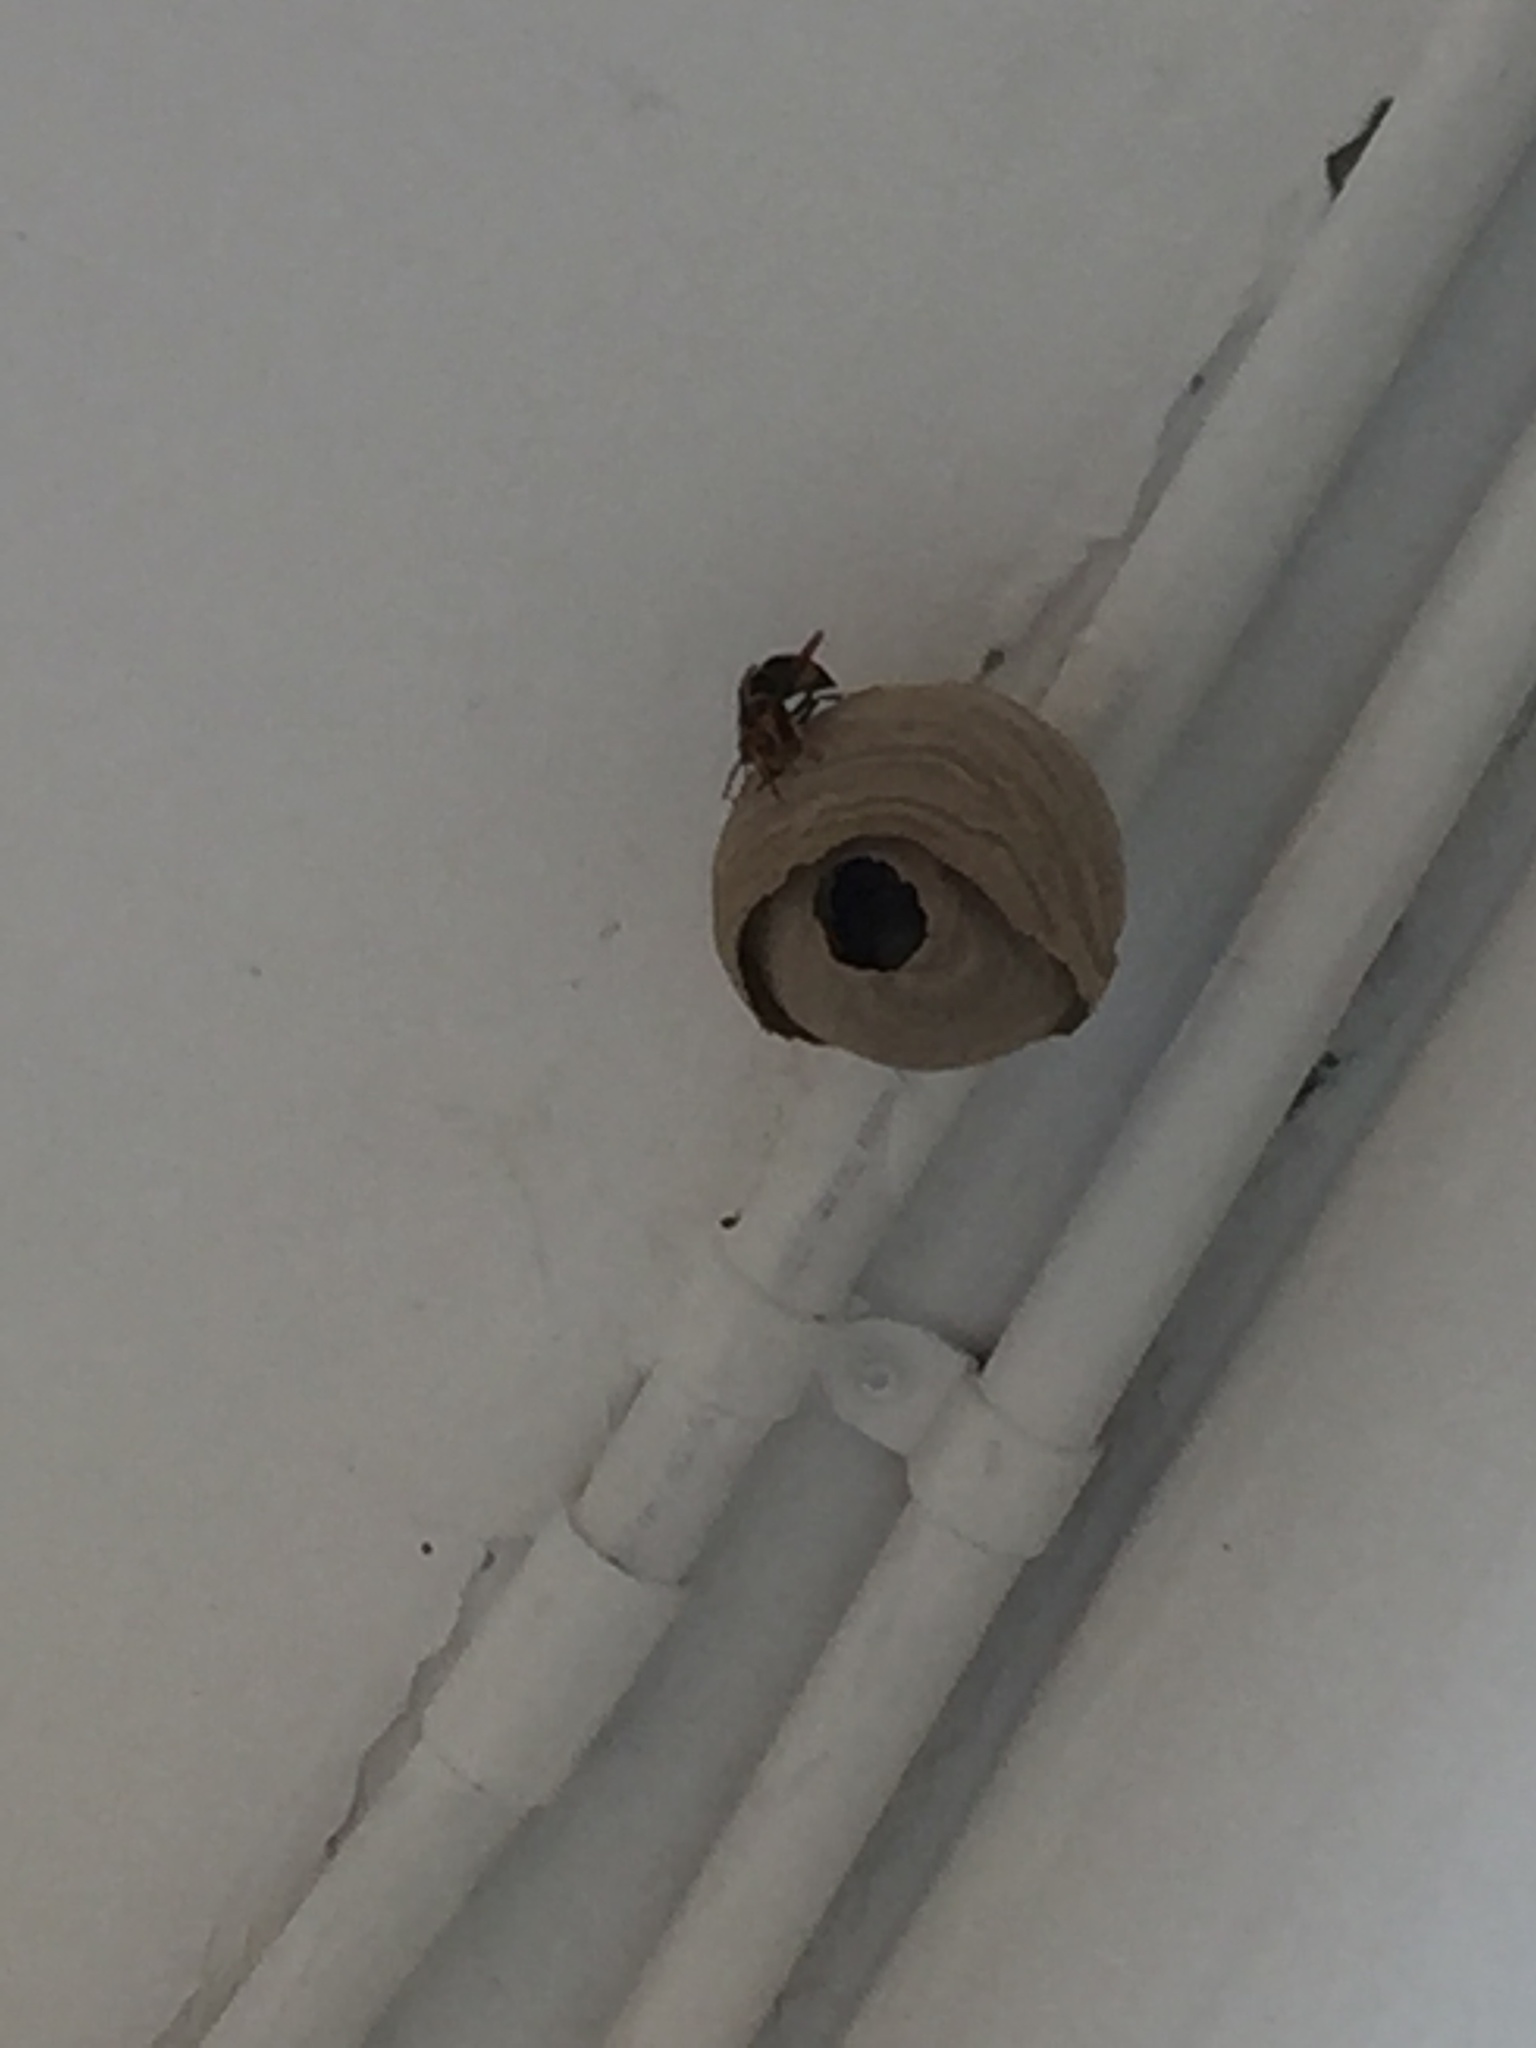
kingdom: Animalia
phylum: Arthropoda
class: Insecta
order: Hymenoptera
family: Vespidae
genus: Vespa
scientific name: Vespa velutina
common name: Asian hornet
